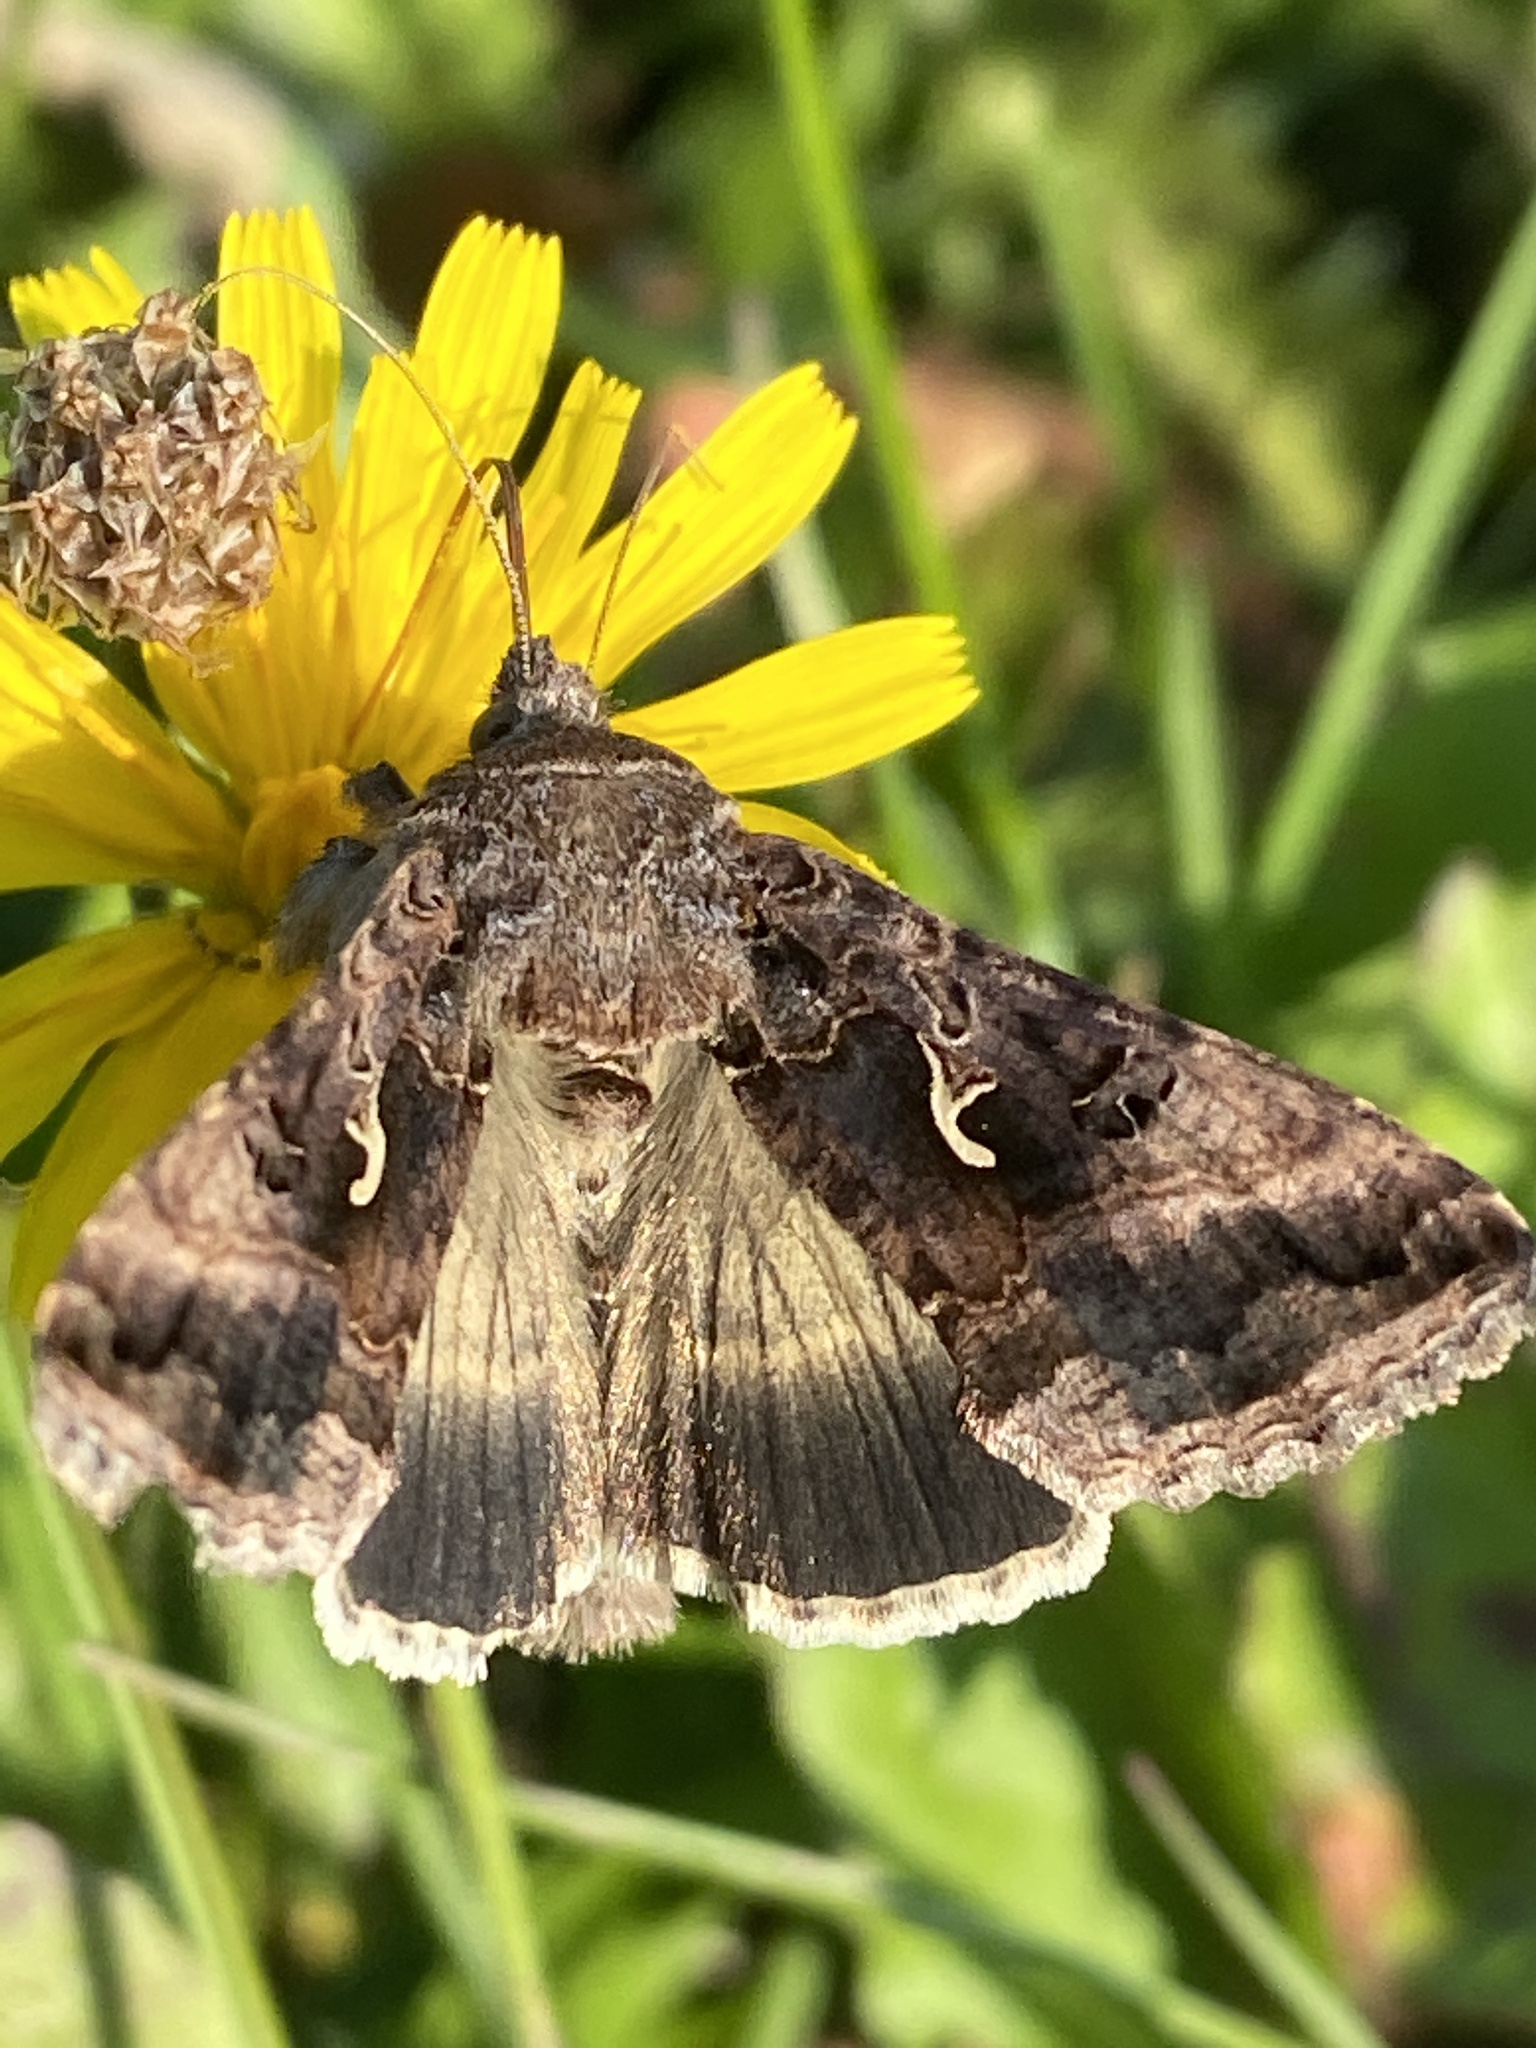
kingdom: Animalia
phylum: Arthropoda
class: Insecta
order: Lepidoptera
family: Noctuidae
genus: Autographa
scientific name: Autographa gamma
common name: Silver y
